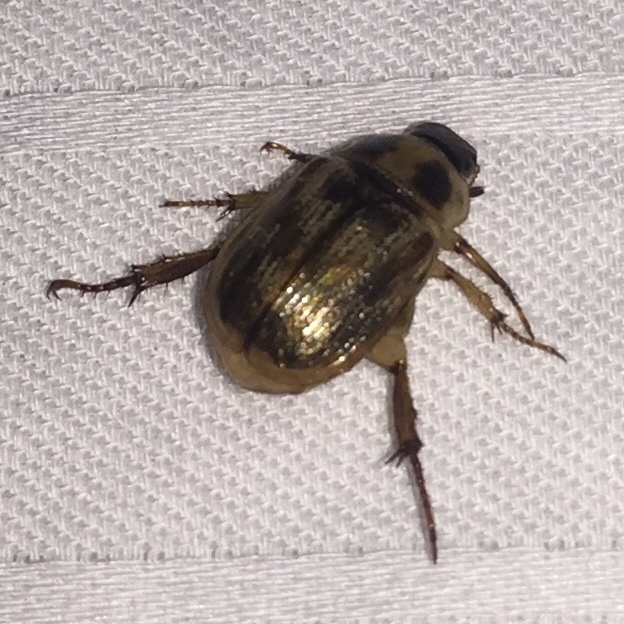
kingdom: Animalia
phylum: Arthropoda
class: Insecta
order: Coleoptera
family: Scarabaeidae
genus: Exomala
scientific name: Exomala orientalis
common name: Oriental beetle
